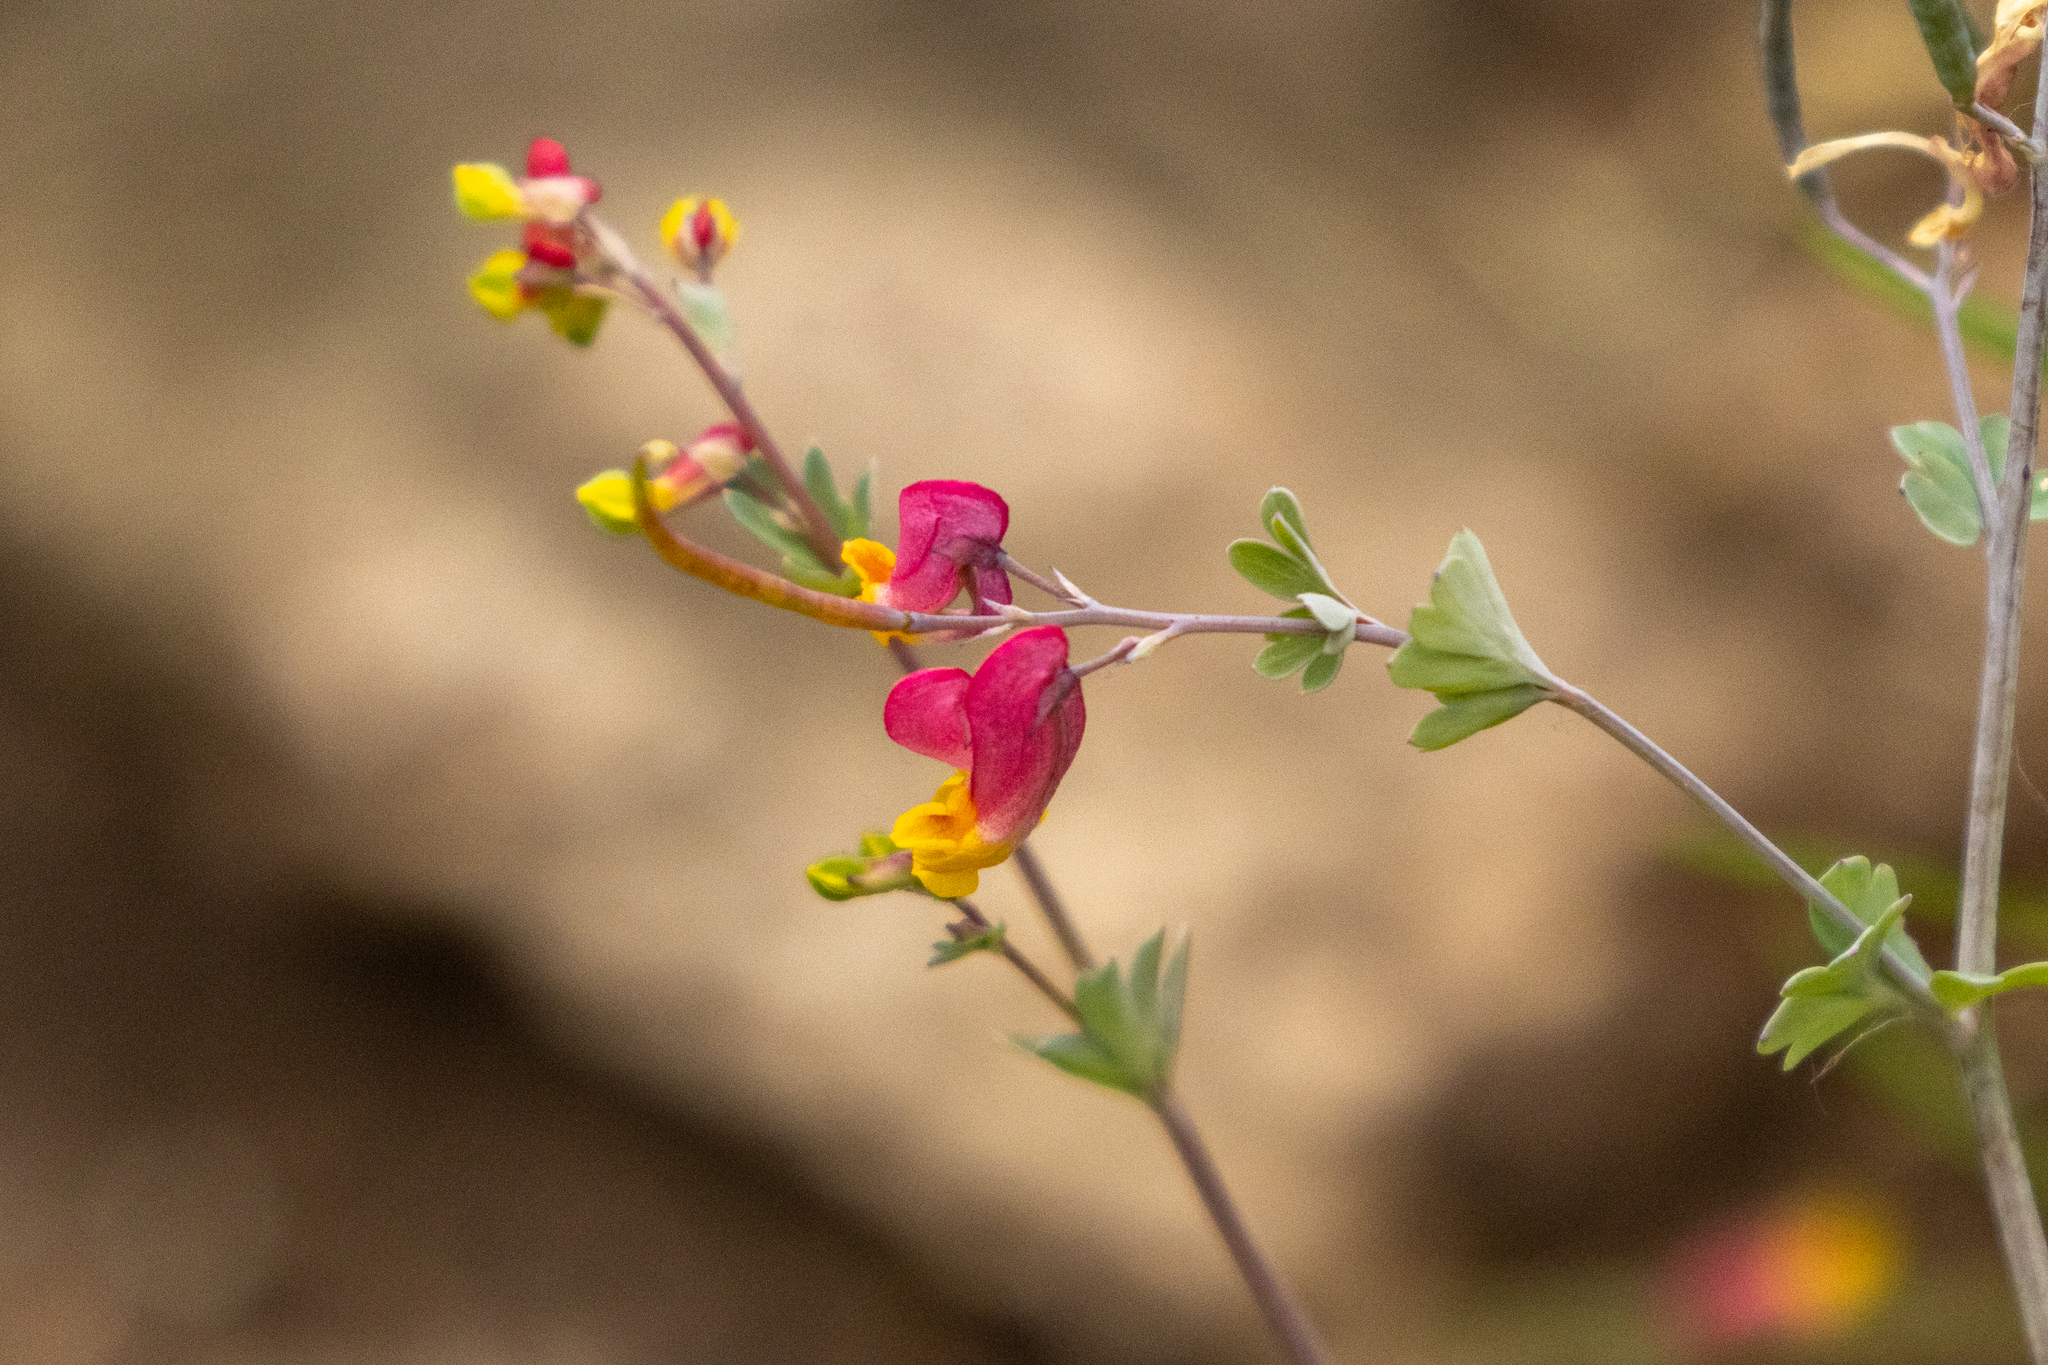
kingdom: Plantae
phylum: Tracheophyta
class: Magnoliopsida
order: Ranunculales
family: Papaveraceae
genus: Capnoides
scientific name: Capnoides sempervirens
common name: Rock harlequin
